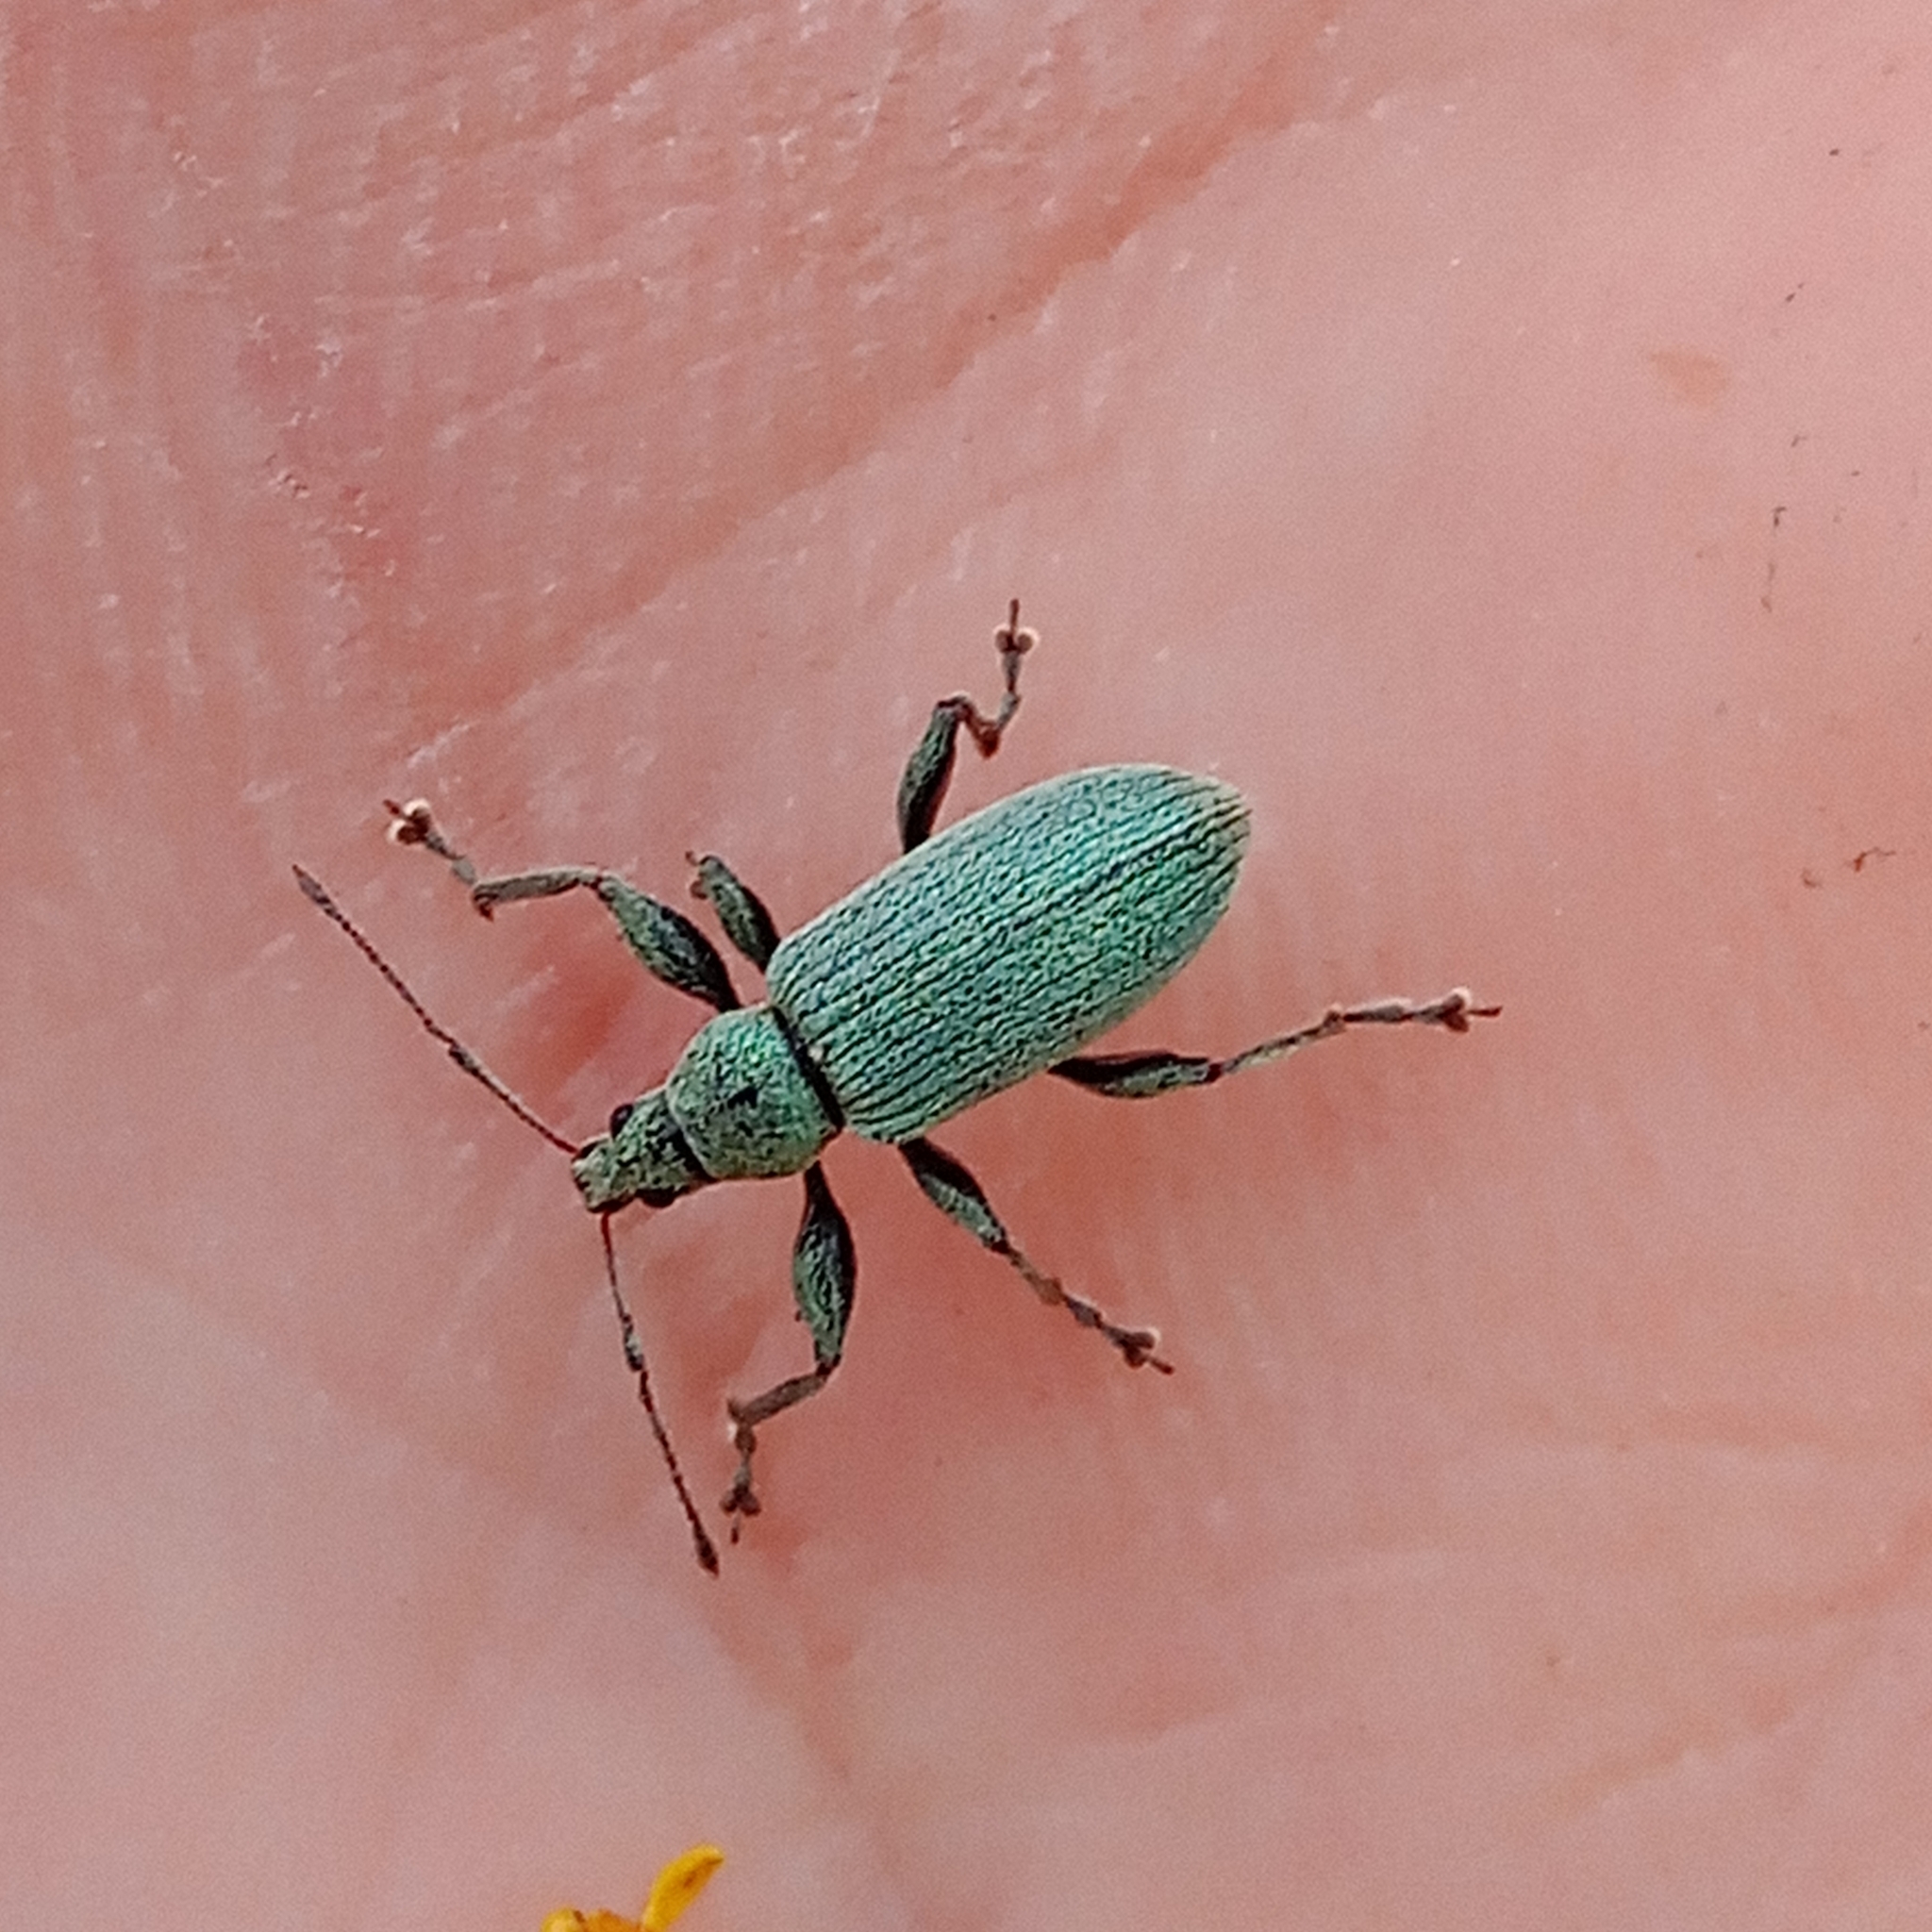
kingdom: Animalia
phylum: Arthropoda
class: Insecta
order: Coleoptera
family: Curculionidae
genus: Phyllobius
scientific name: Phyllobius pomaceus
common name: Green nettle weevil
